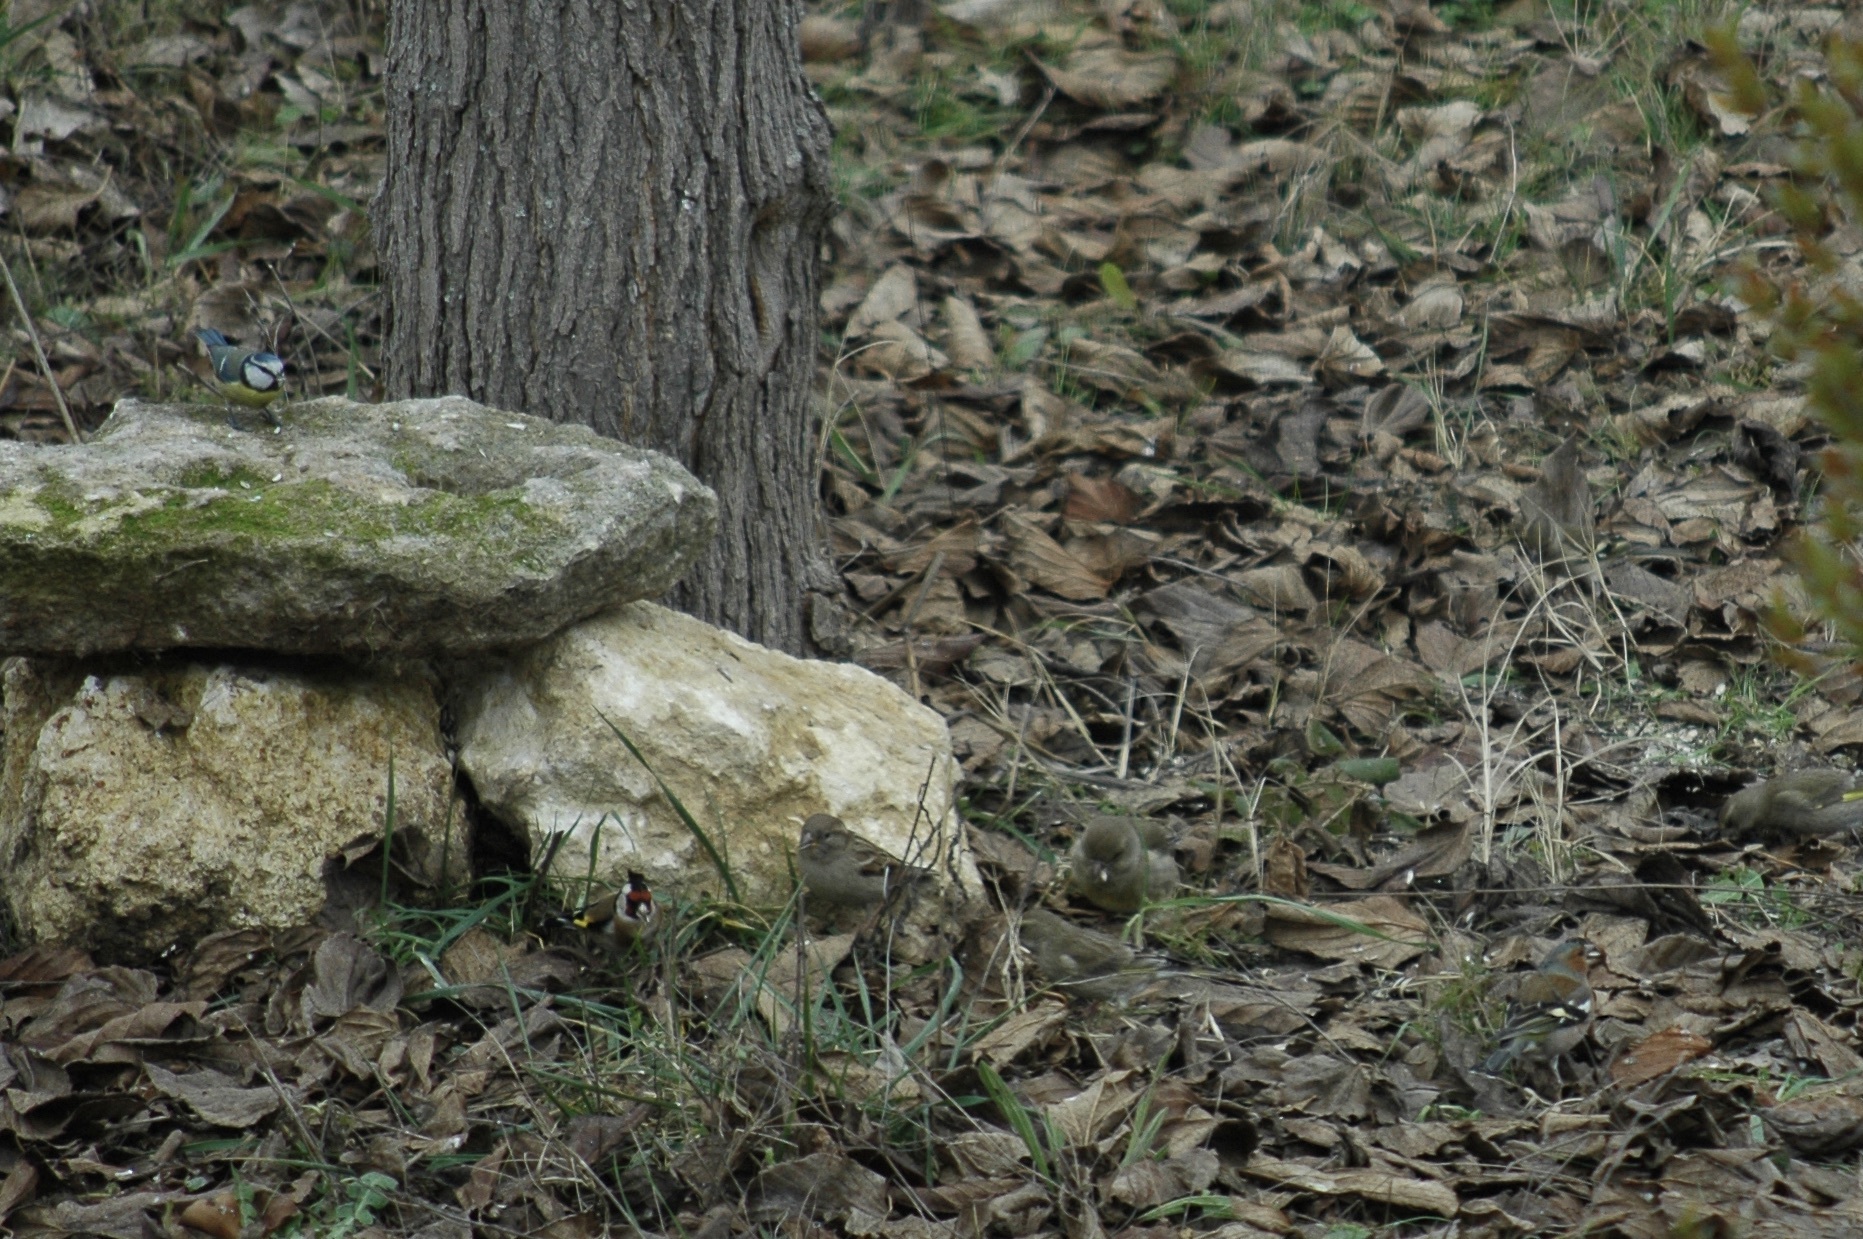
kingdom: Plantae
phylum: Tracheophyta
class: Liliopsida
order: Poales
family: Poaceae
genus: Chloris
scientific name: Chloris chloris
